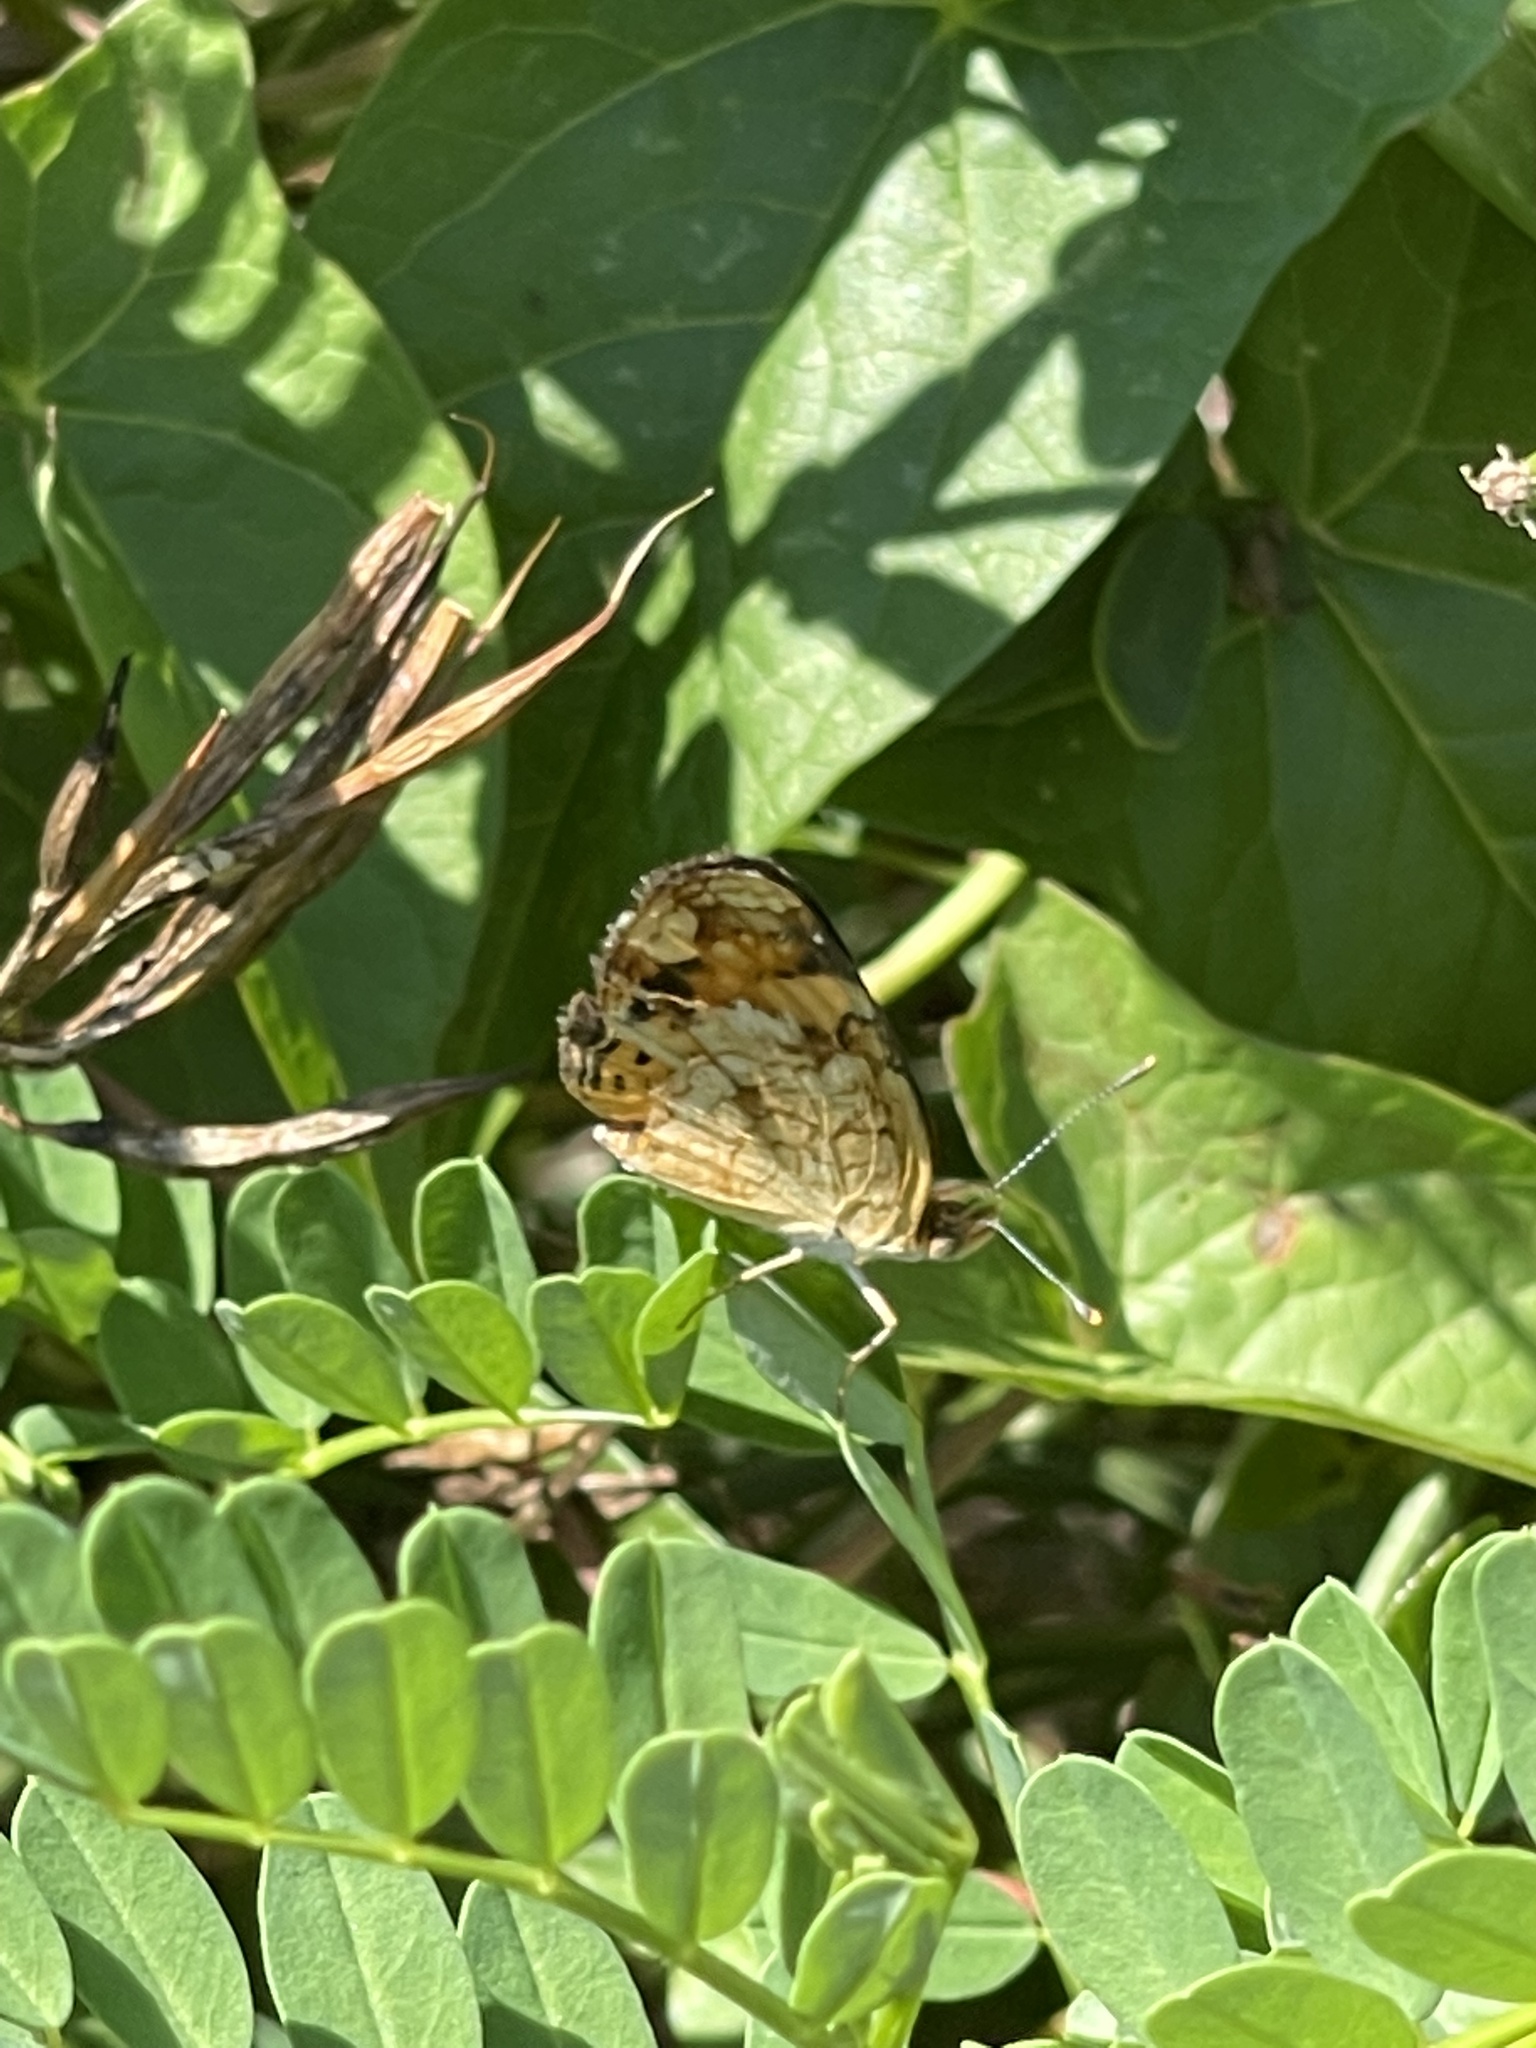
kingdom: Animalia
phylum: Arthropoda
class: Insecta
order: Lepidoptera
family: Nymphalidae
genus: Phyciodes
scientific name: Phyciodes tharos
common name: Pearl crescent
